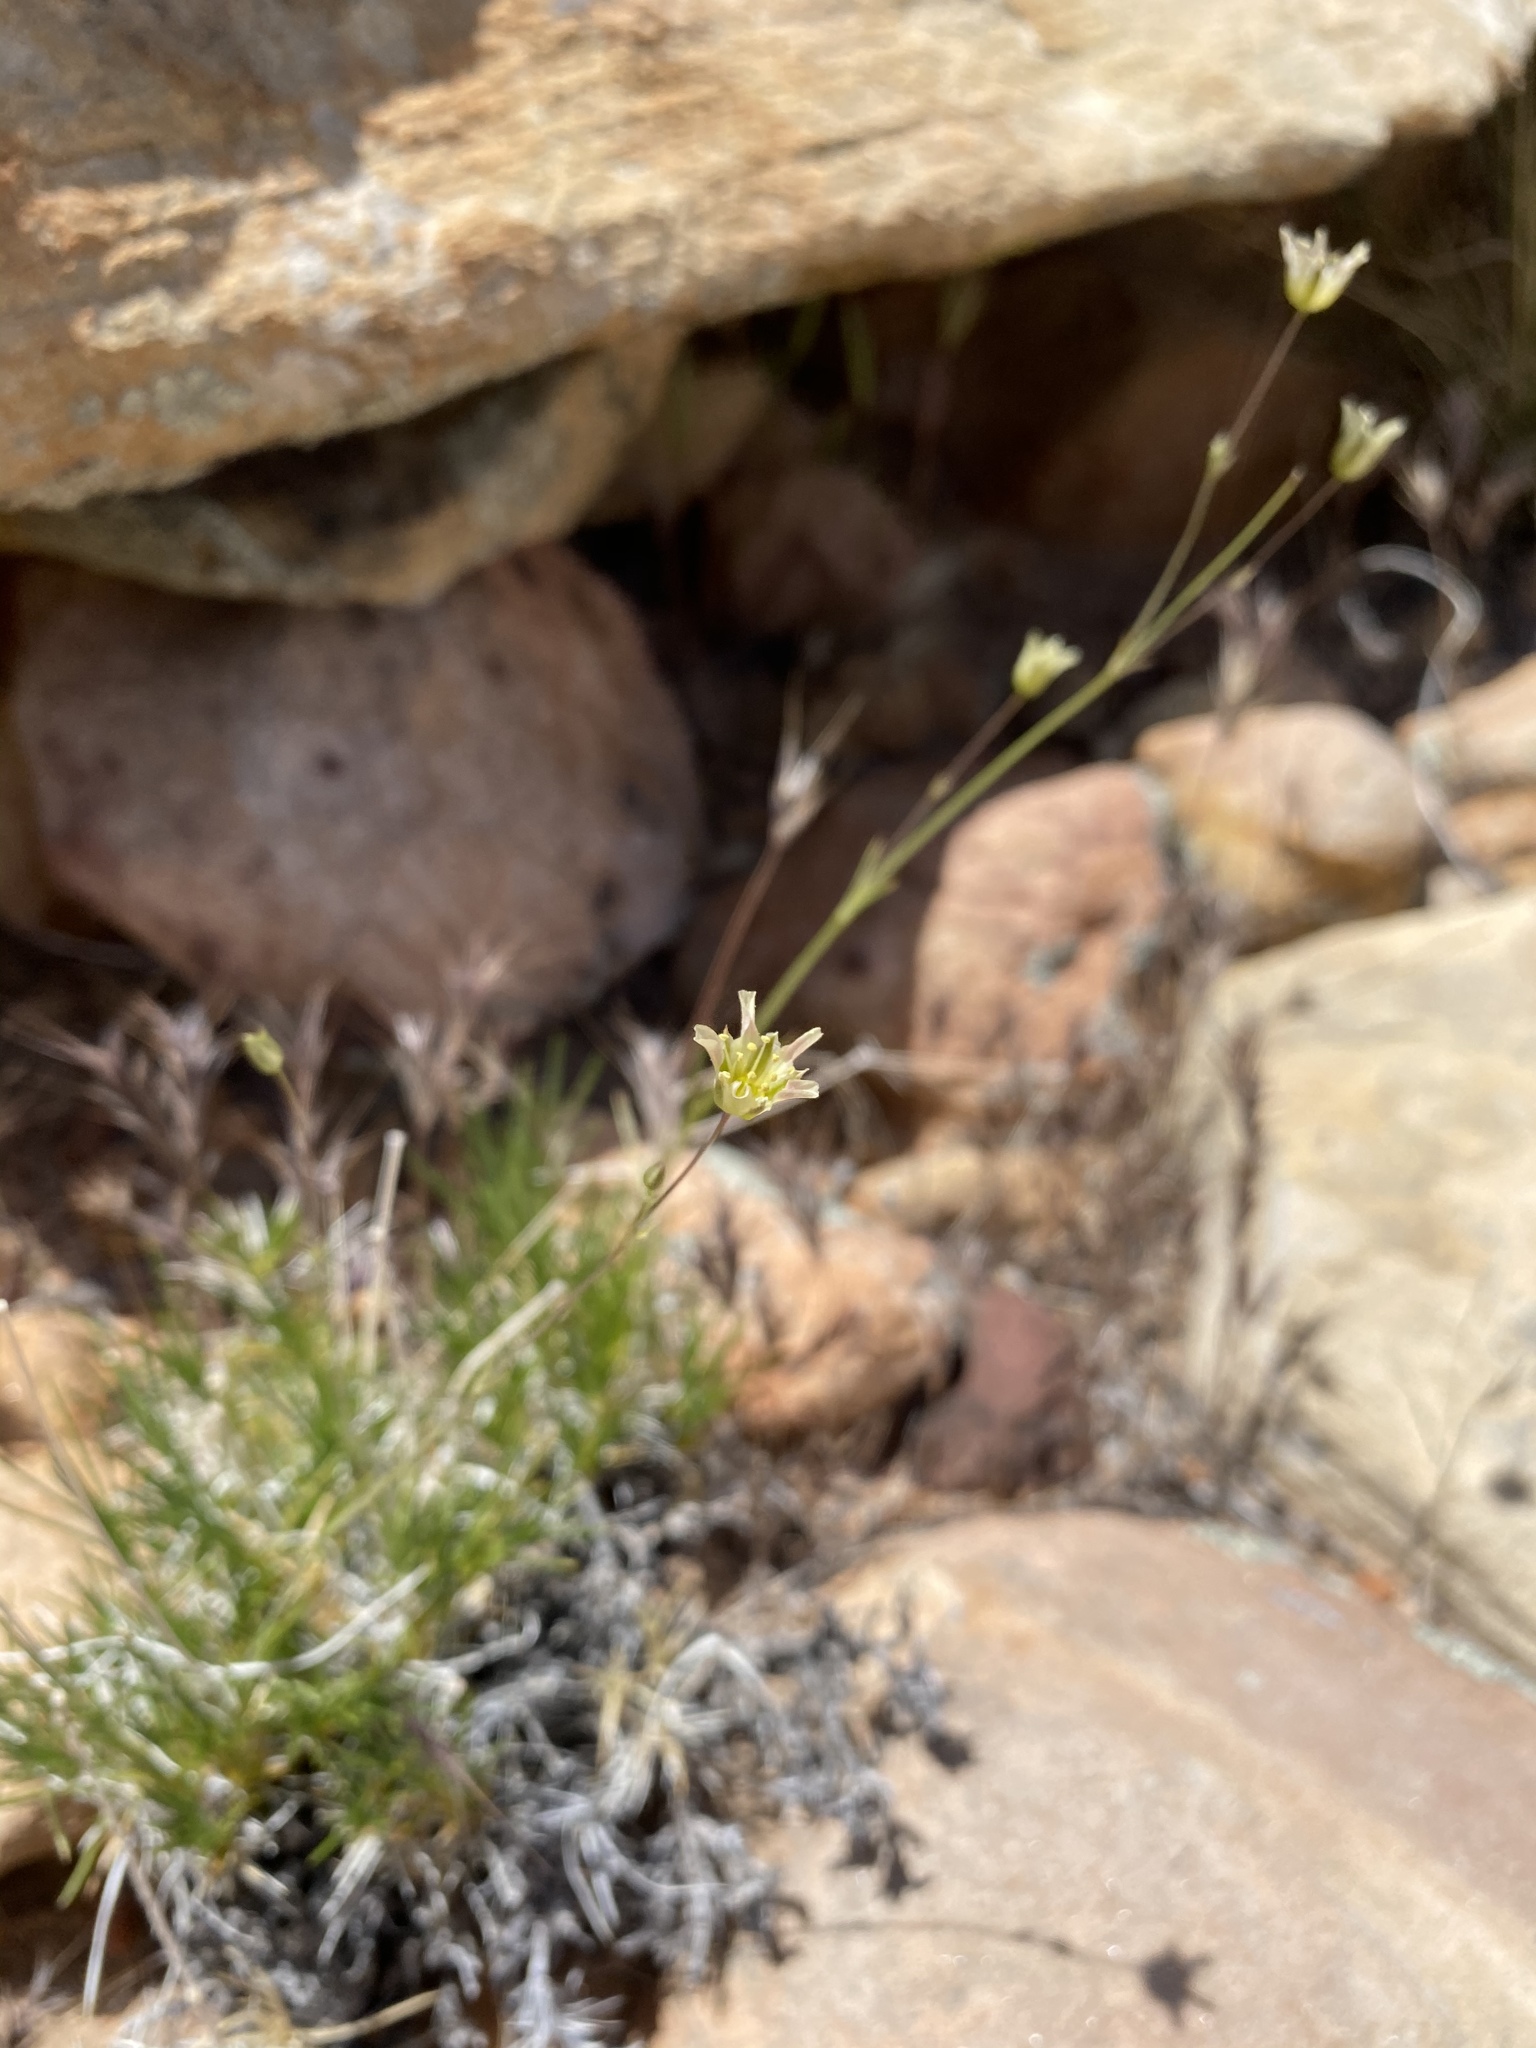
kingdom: Plantae
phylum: Tracheophyta
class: Magnoliopsida
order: Caryophyllales
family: Caryophyllaceae
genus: Eremogone
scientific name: Eremogone macradenia
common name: Mohave sandwort
